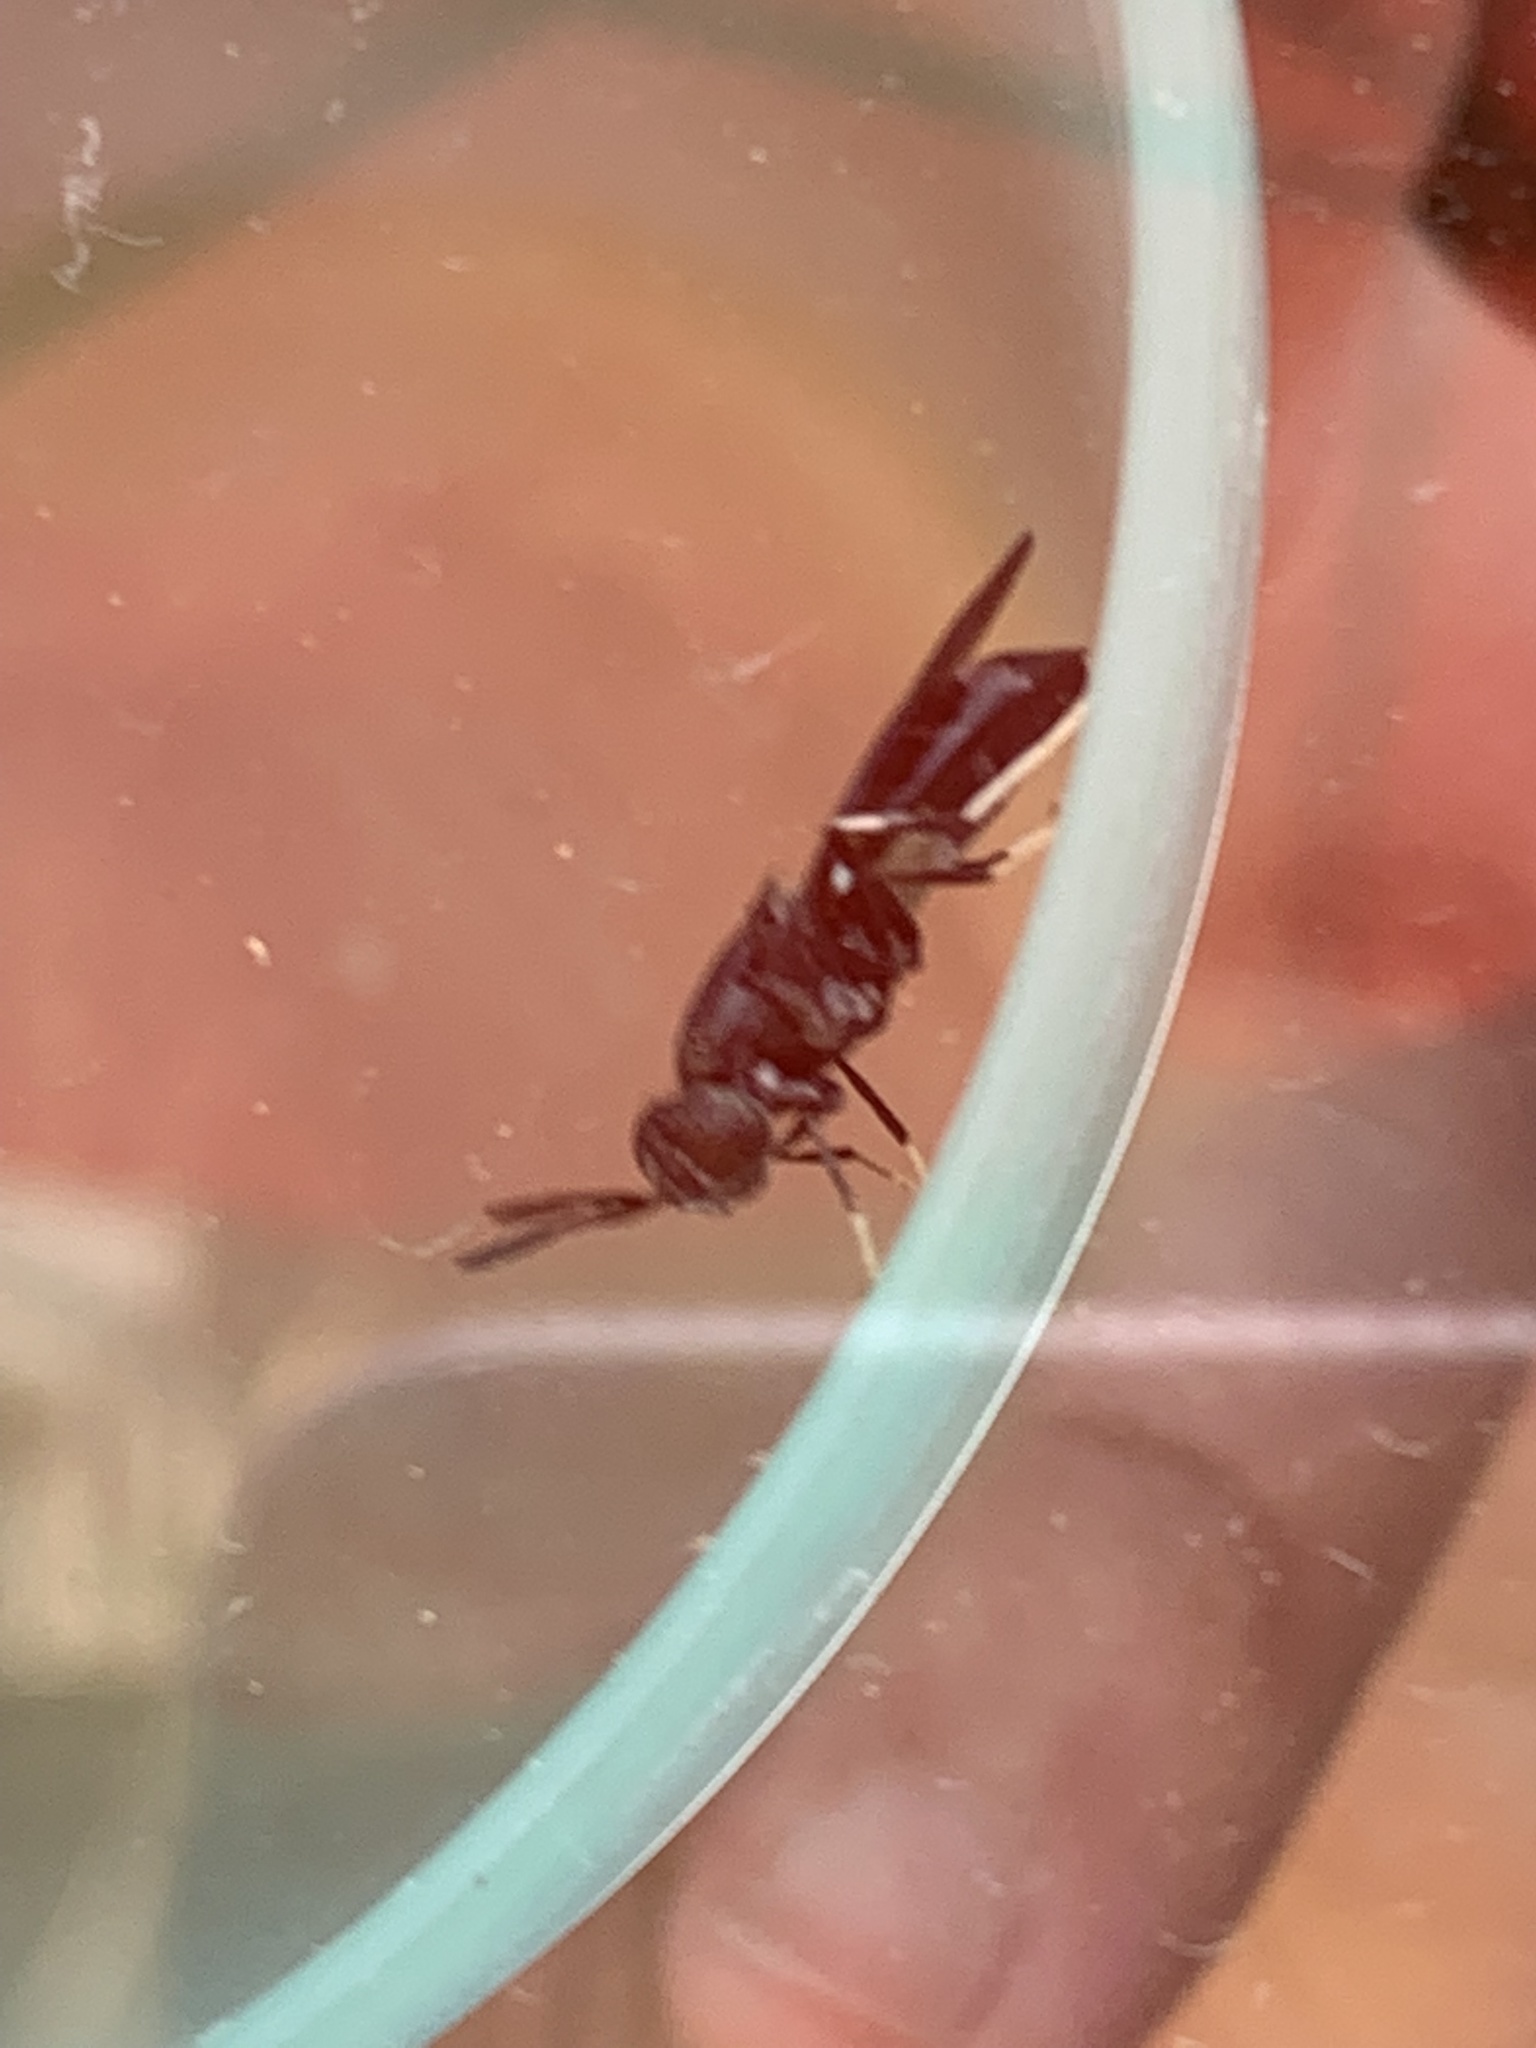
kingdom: Animalia
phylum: Arthropoda
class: Insecta
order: Diptera
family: Stratiomyidae
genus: Hermetia
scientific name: Hermetia illucens
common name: Black soldier fly
